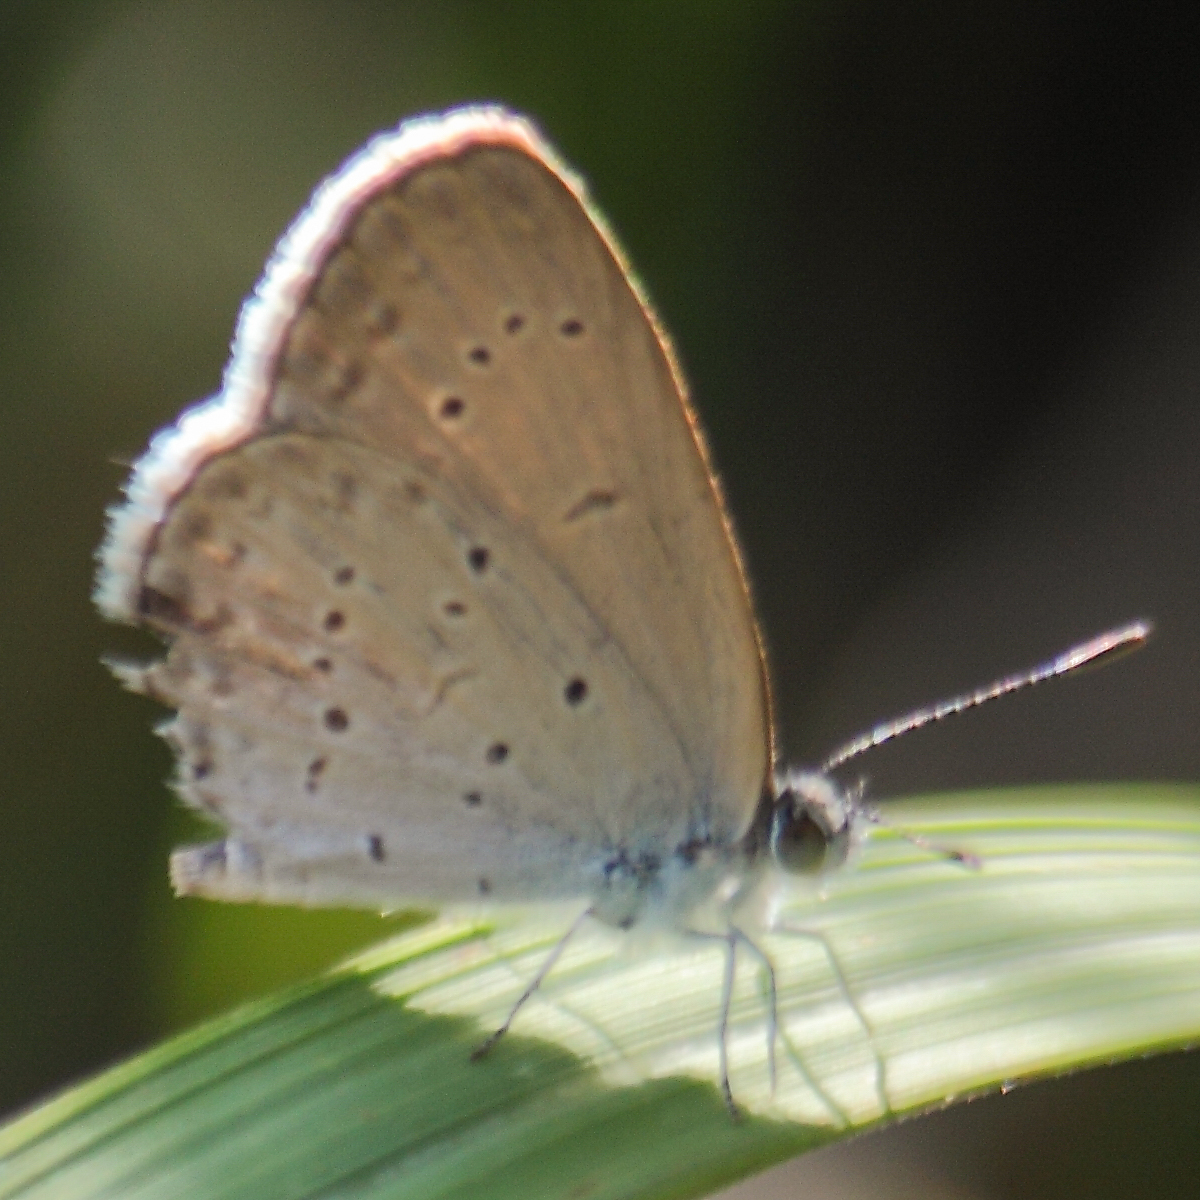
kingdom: Animalia
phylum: Arthropoda
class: Insecta
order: Lepidoptera
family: Lycaenidae
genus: Zizina
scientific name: Zizina otis
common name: Lesser grass blue
